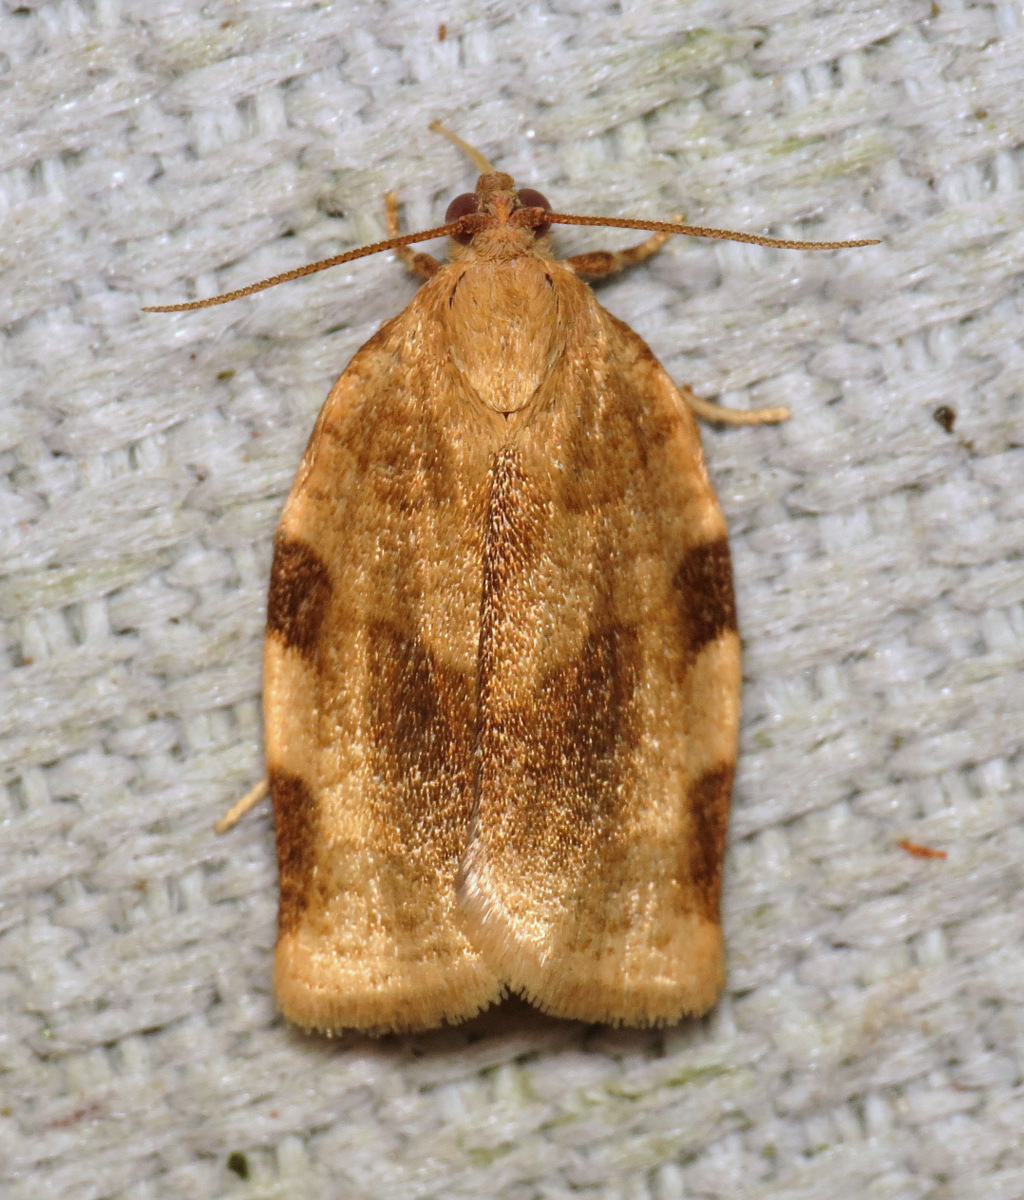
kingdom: Animalia
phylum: Arthropoda
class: Insecta
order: Lepidoptera
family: Tortricidae
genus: Choristoneura
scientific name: Choristoneura fractivittana
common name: Broken-banded leafroller moth
